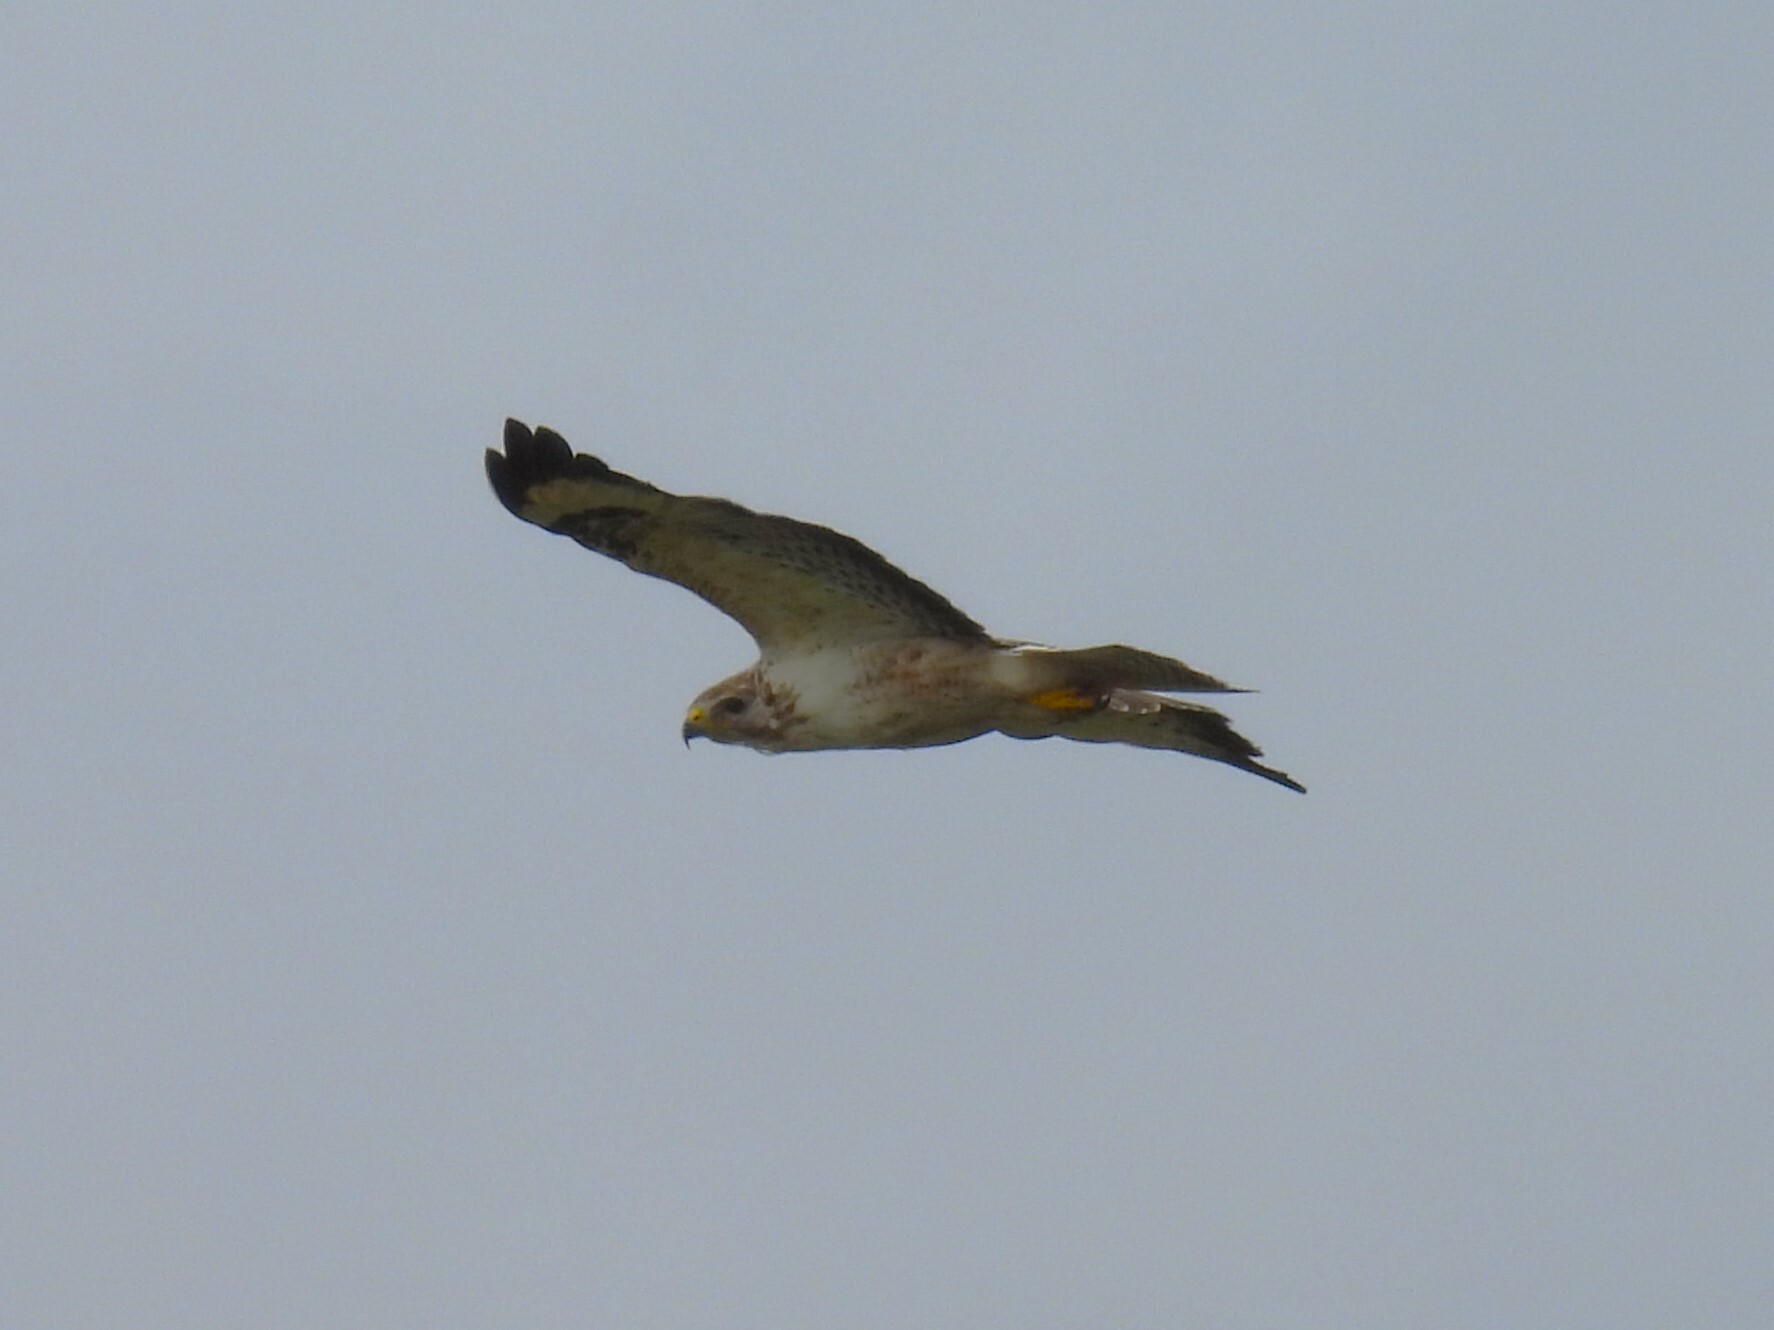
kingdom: Animalia
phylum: Chordata
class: Aves
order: Accipitriformes
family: Accipitridae
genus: Buteo
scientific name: Buteo buteo
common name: Common buzzard
